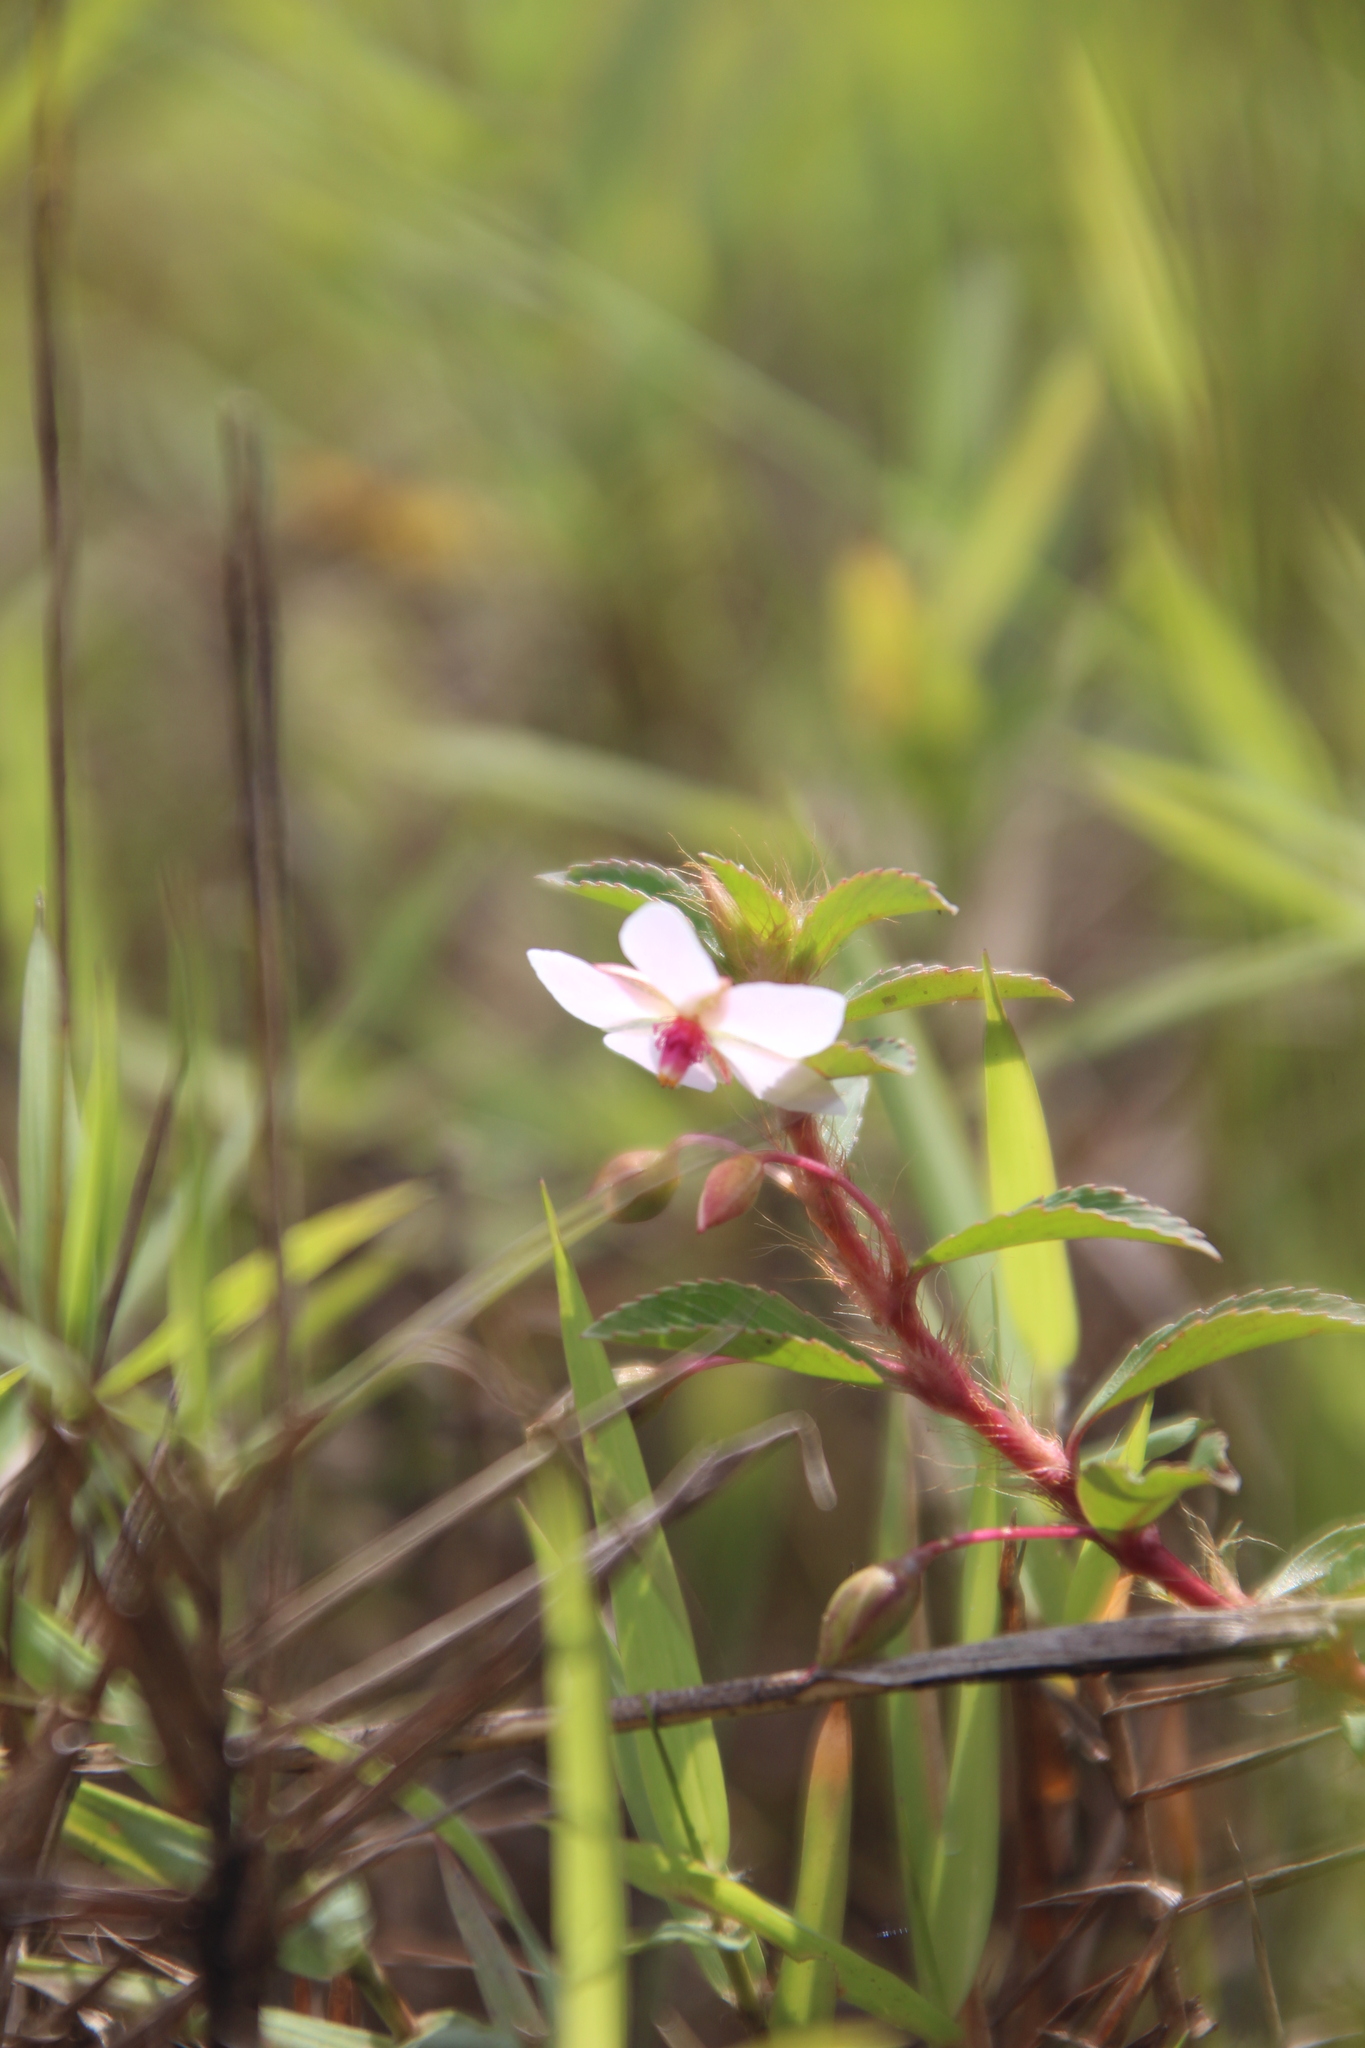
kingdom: Plantae
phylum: Tracheophyta
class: Magnoliopsida
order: Malpighiales
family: Ochnaceae
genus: Sauvagesia
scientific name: Sauvagesia erecta
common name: Creole tea
